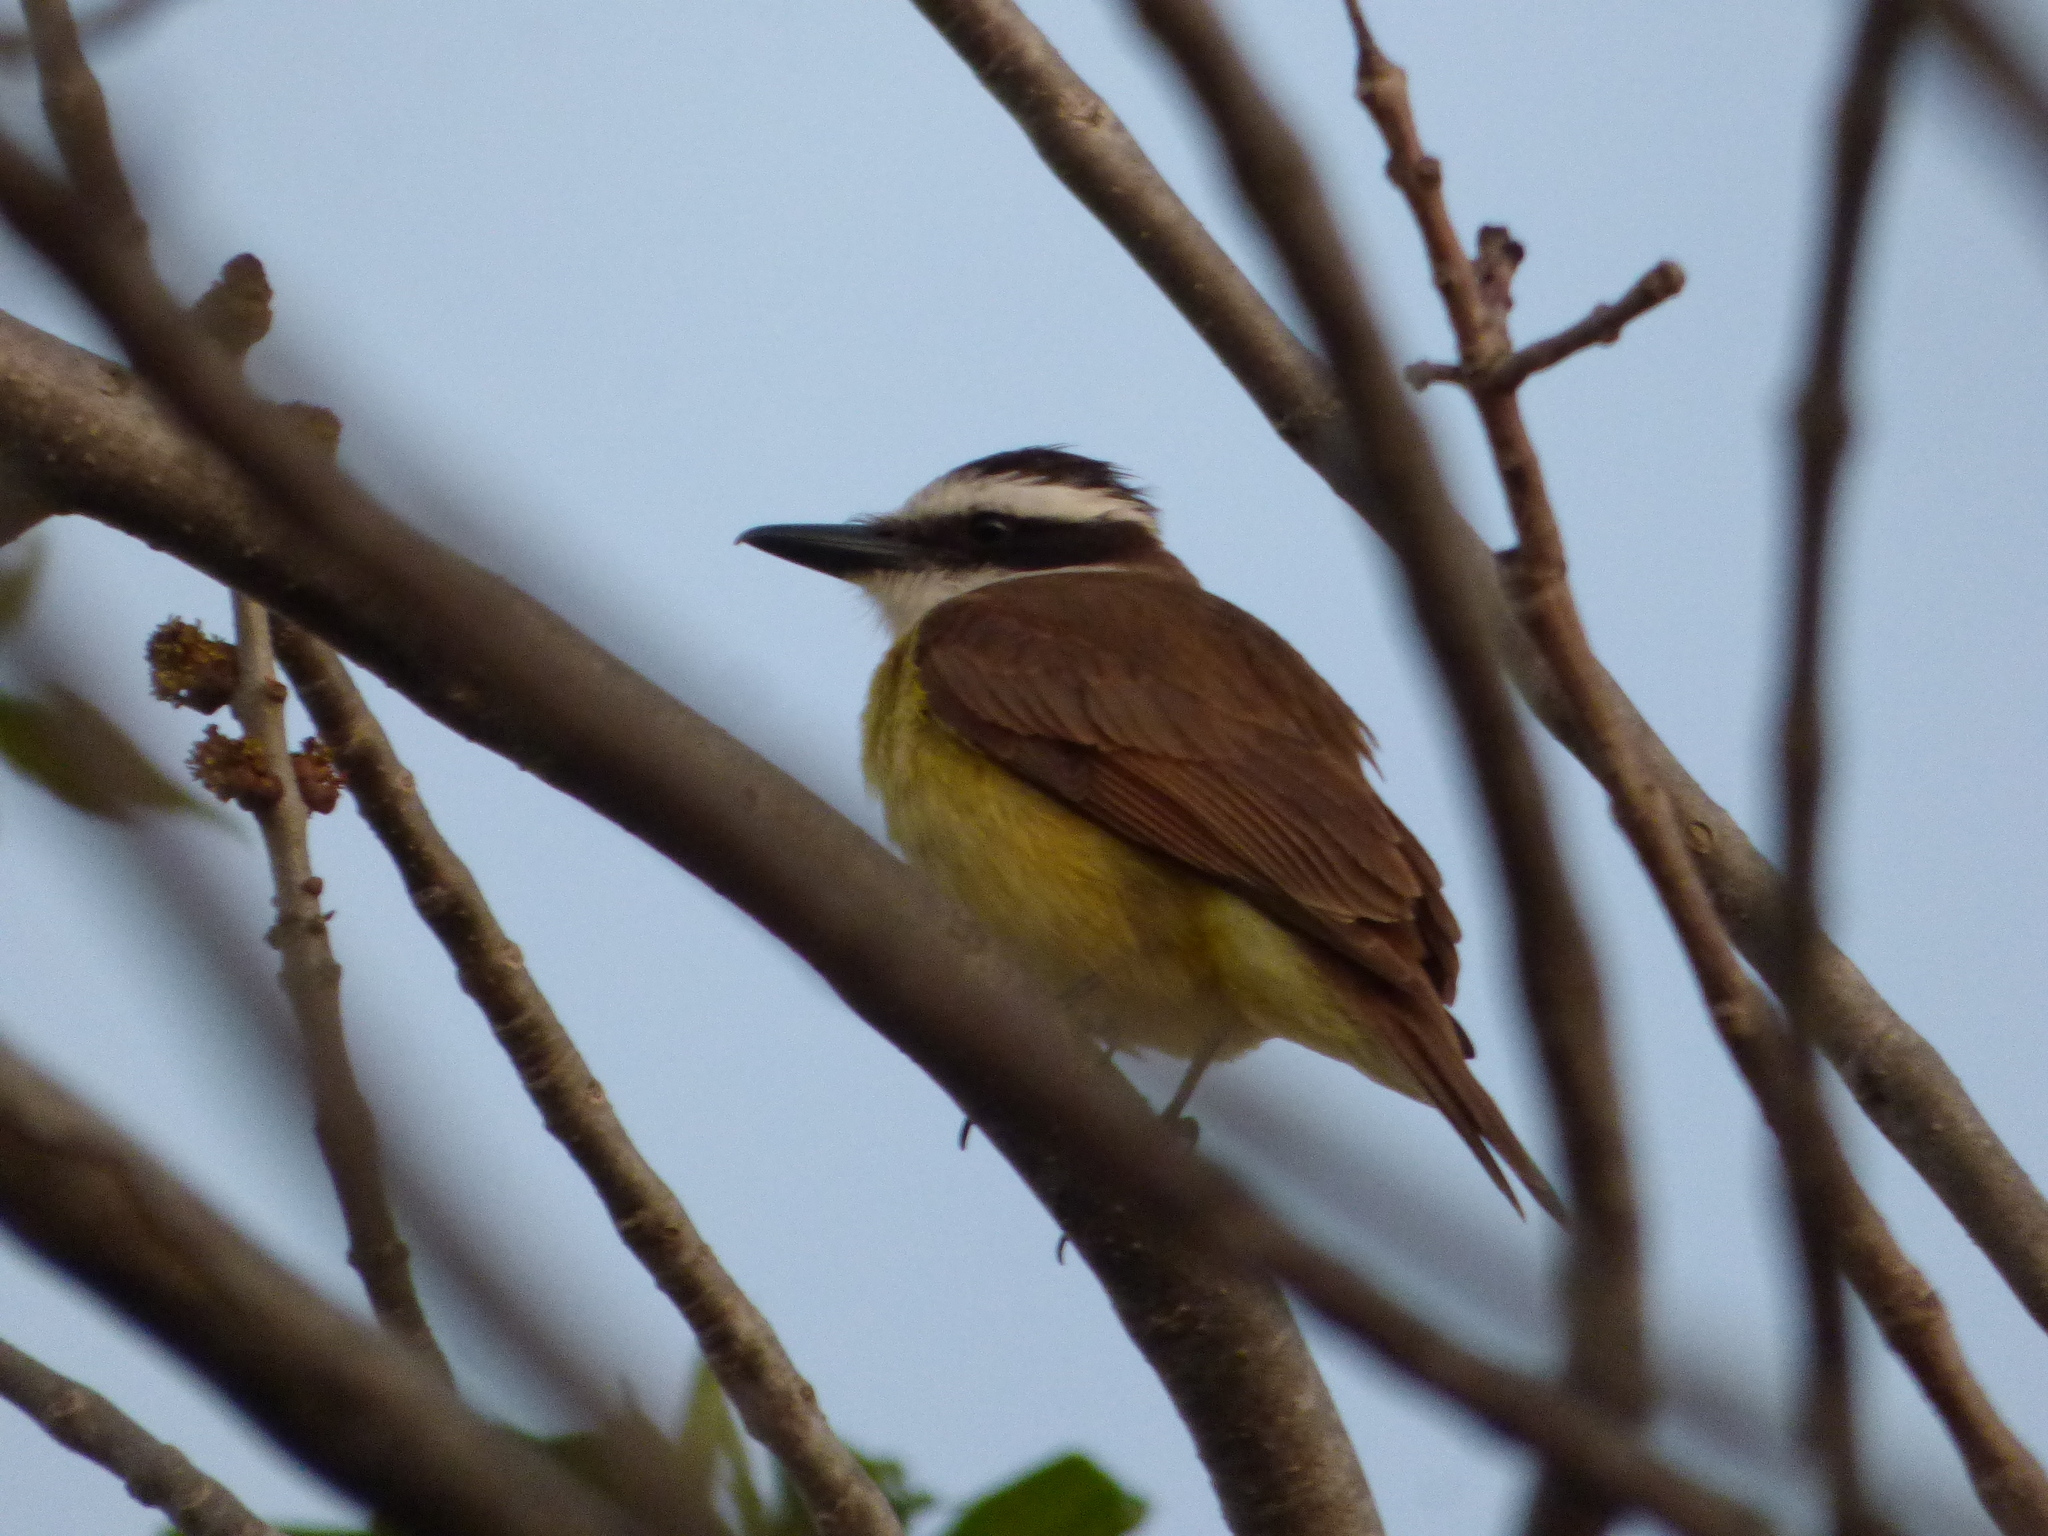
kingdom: Animalia
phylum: Chordata
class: Aves
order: Passeriformes
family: Tyrannidae
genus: Pitangus
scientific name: Pitangus sulphuratus
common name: Great kiskadee
